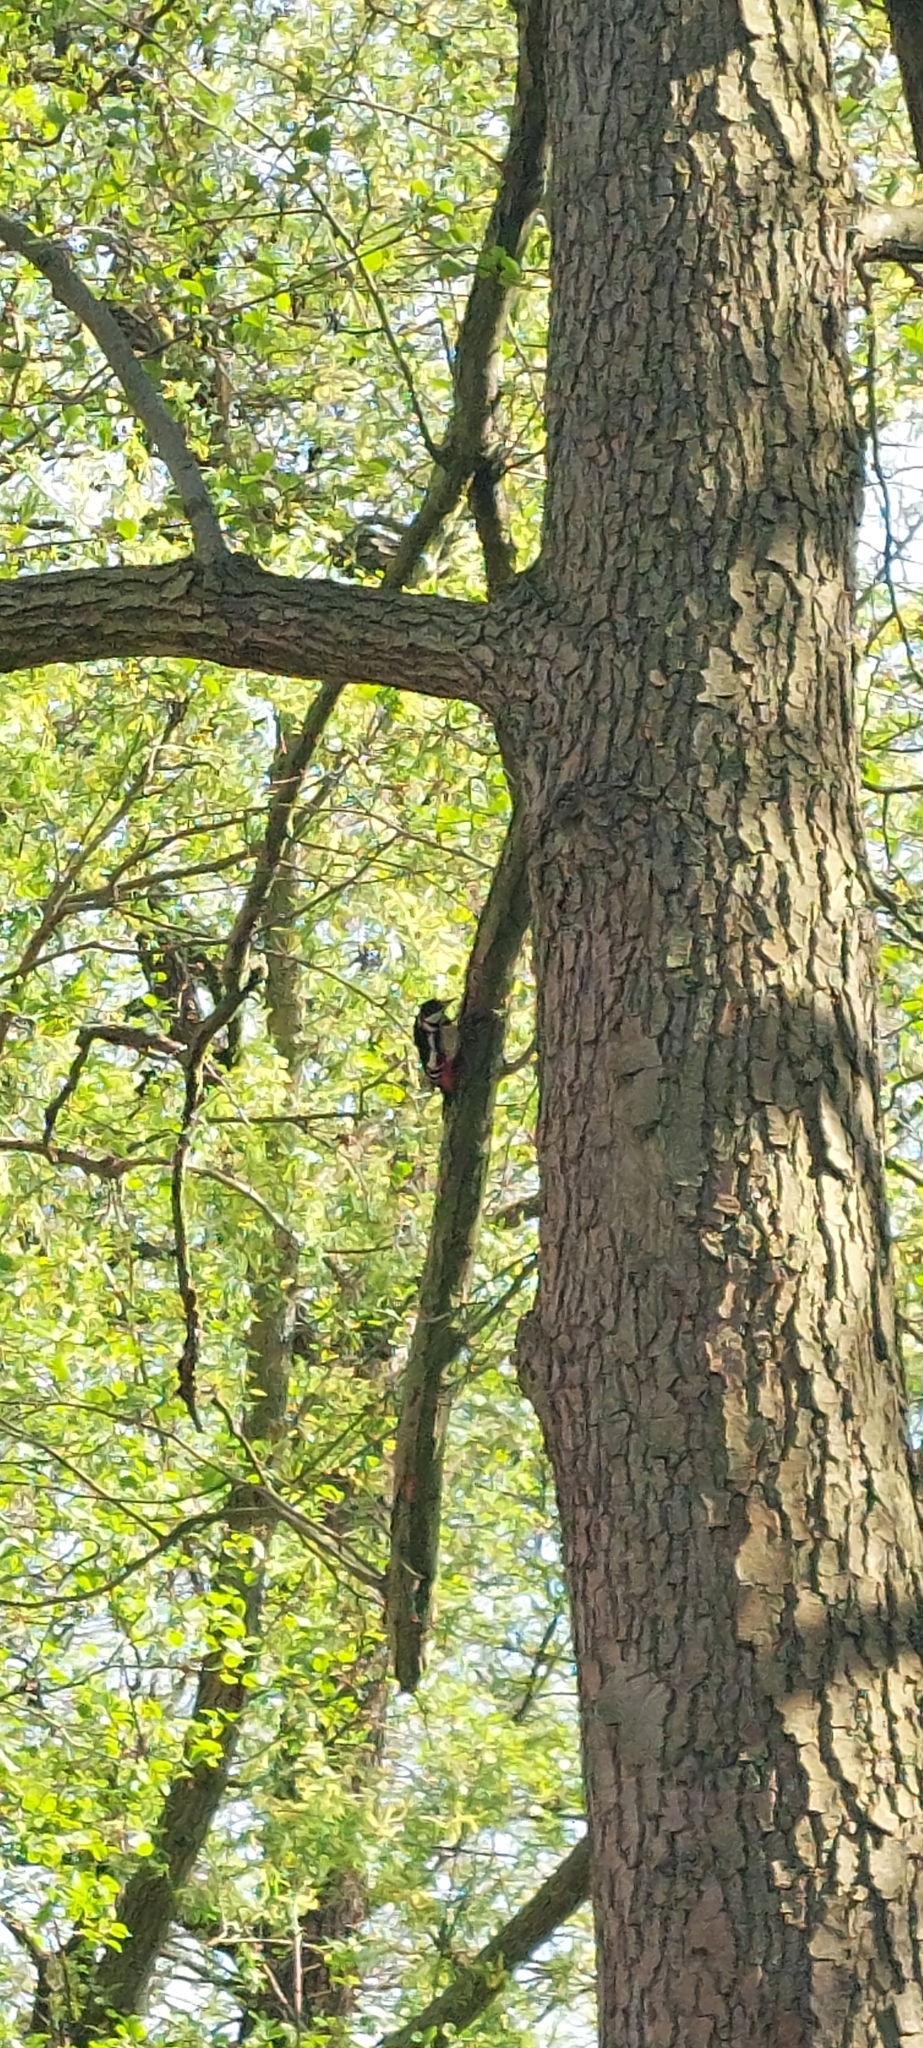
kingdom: Animalia
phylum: Chordata
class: Aves
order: Piciformes
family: Picidae
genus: Dendrocopos
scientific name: Dendrocopos major
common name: Great spotted woodpecker
